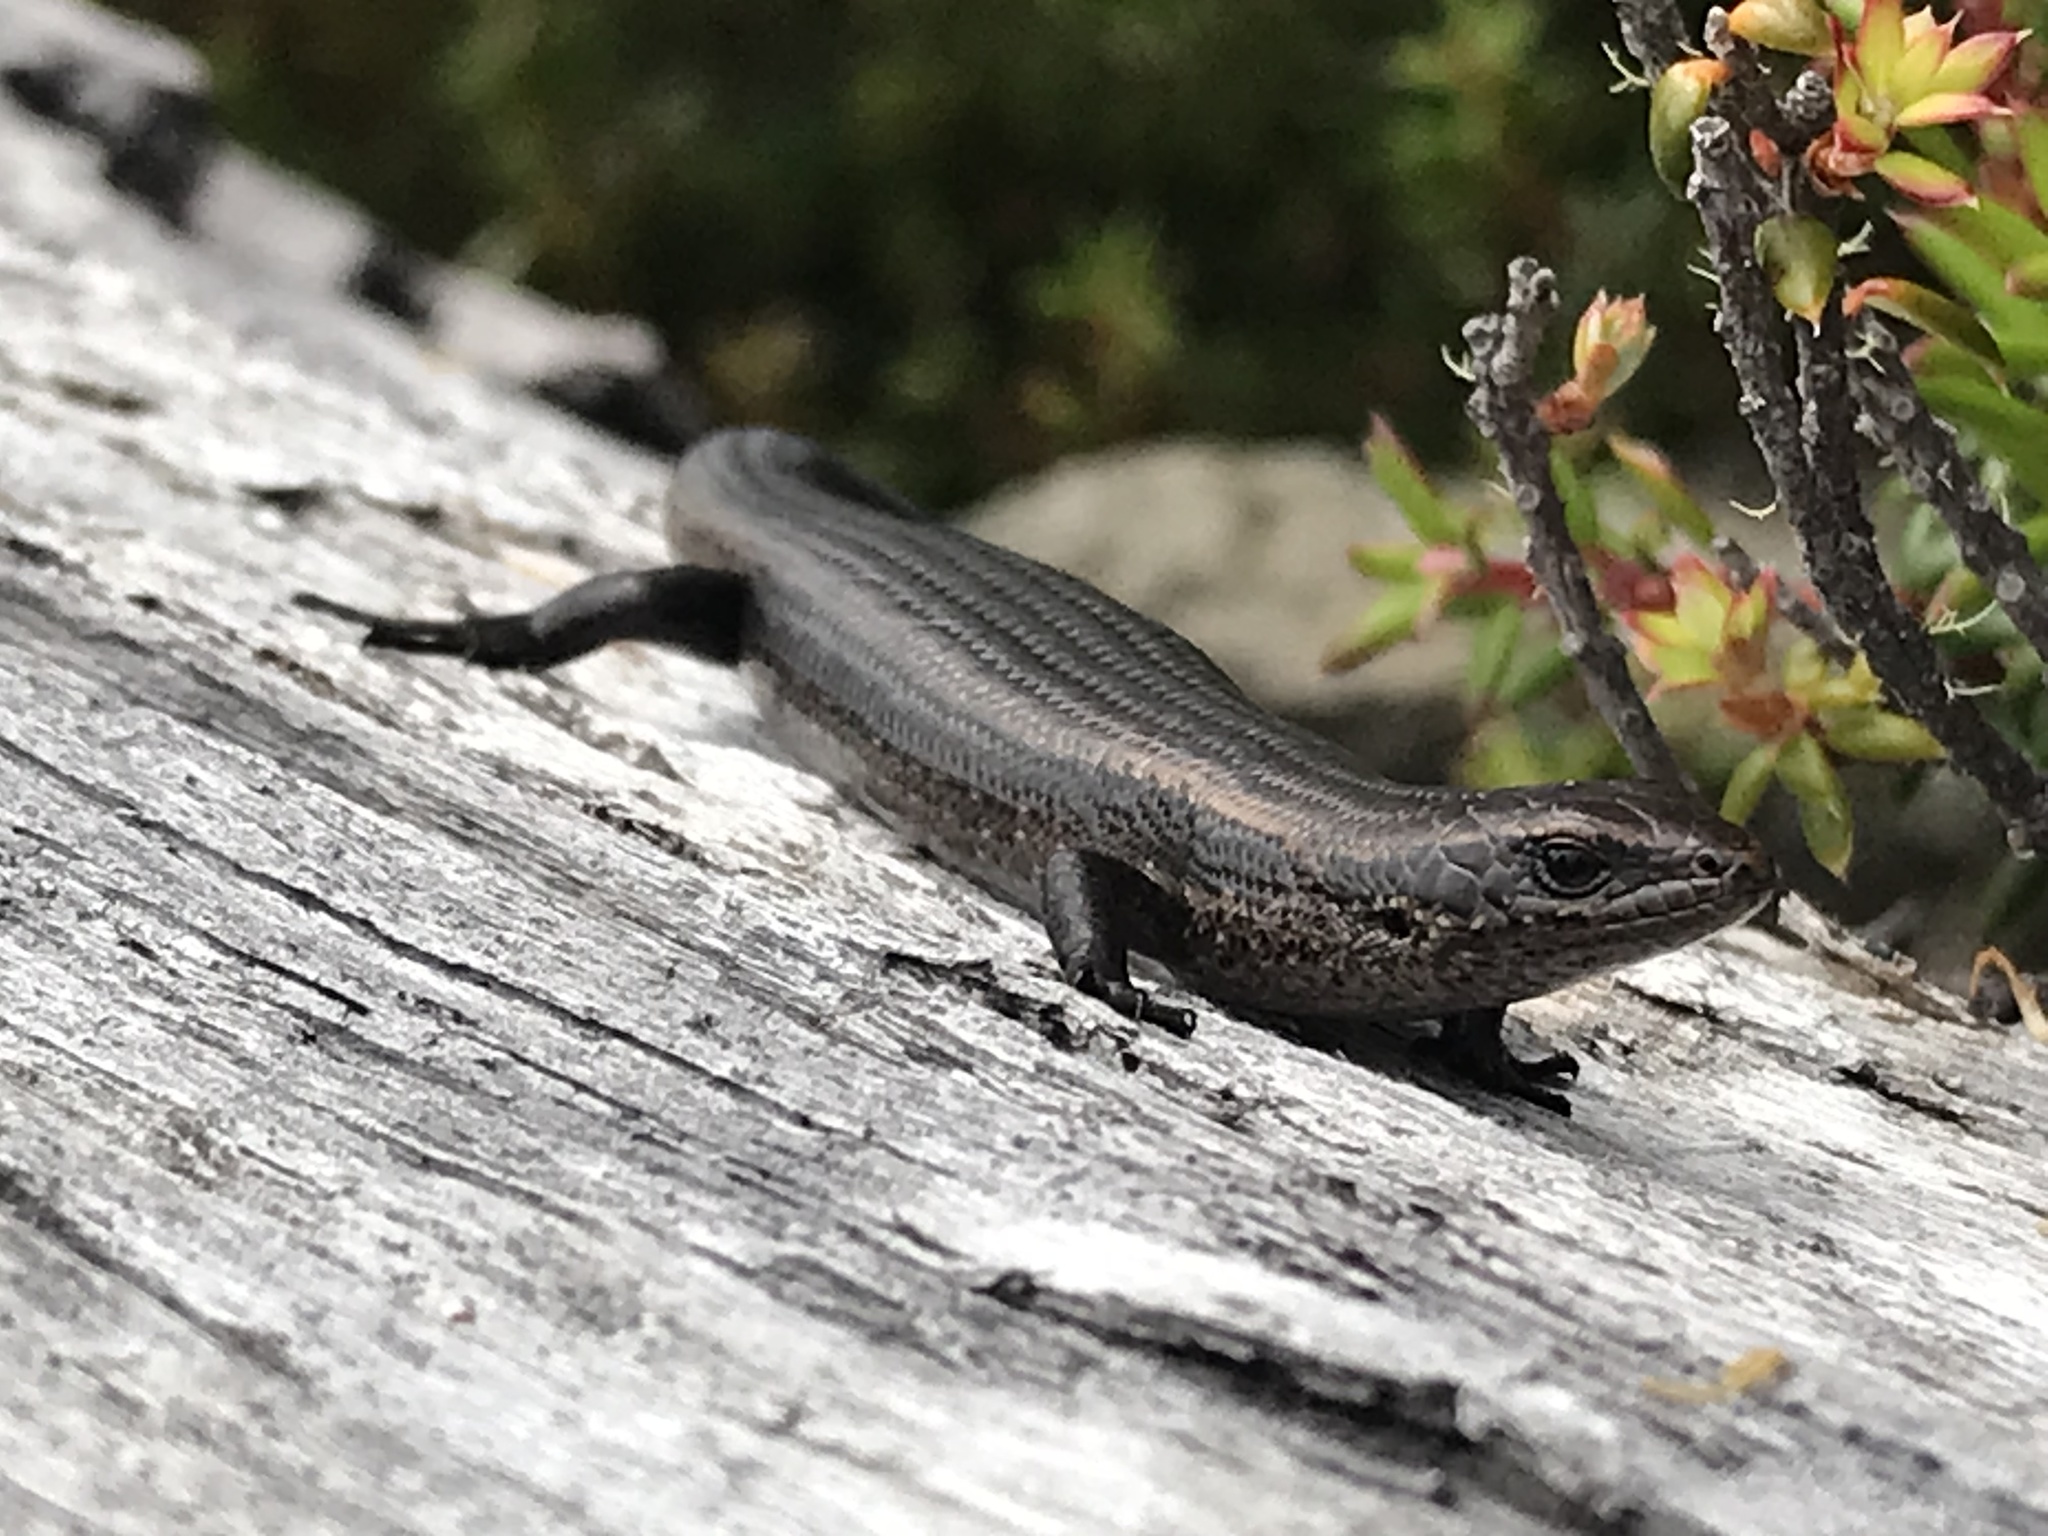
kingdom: Animalia
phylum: Chordata
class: Squamata
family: Scincidae
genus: Carinascincus
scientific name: Carinascincus metallicus
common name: Metallic cool-skink
